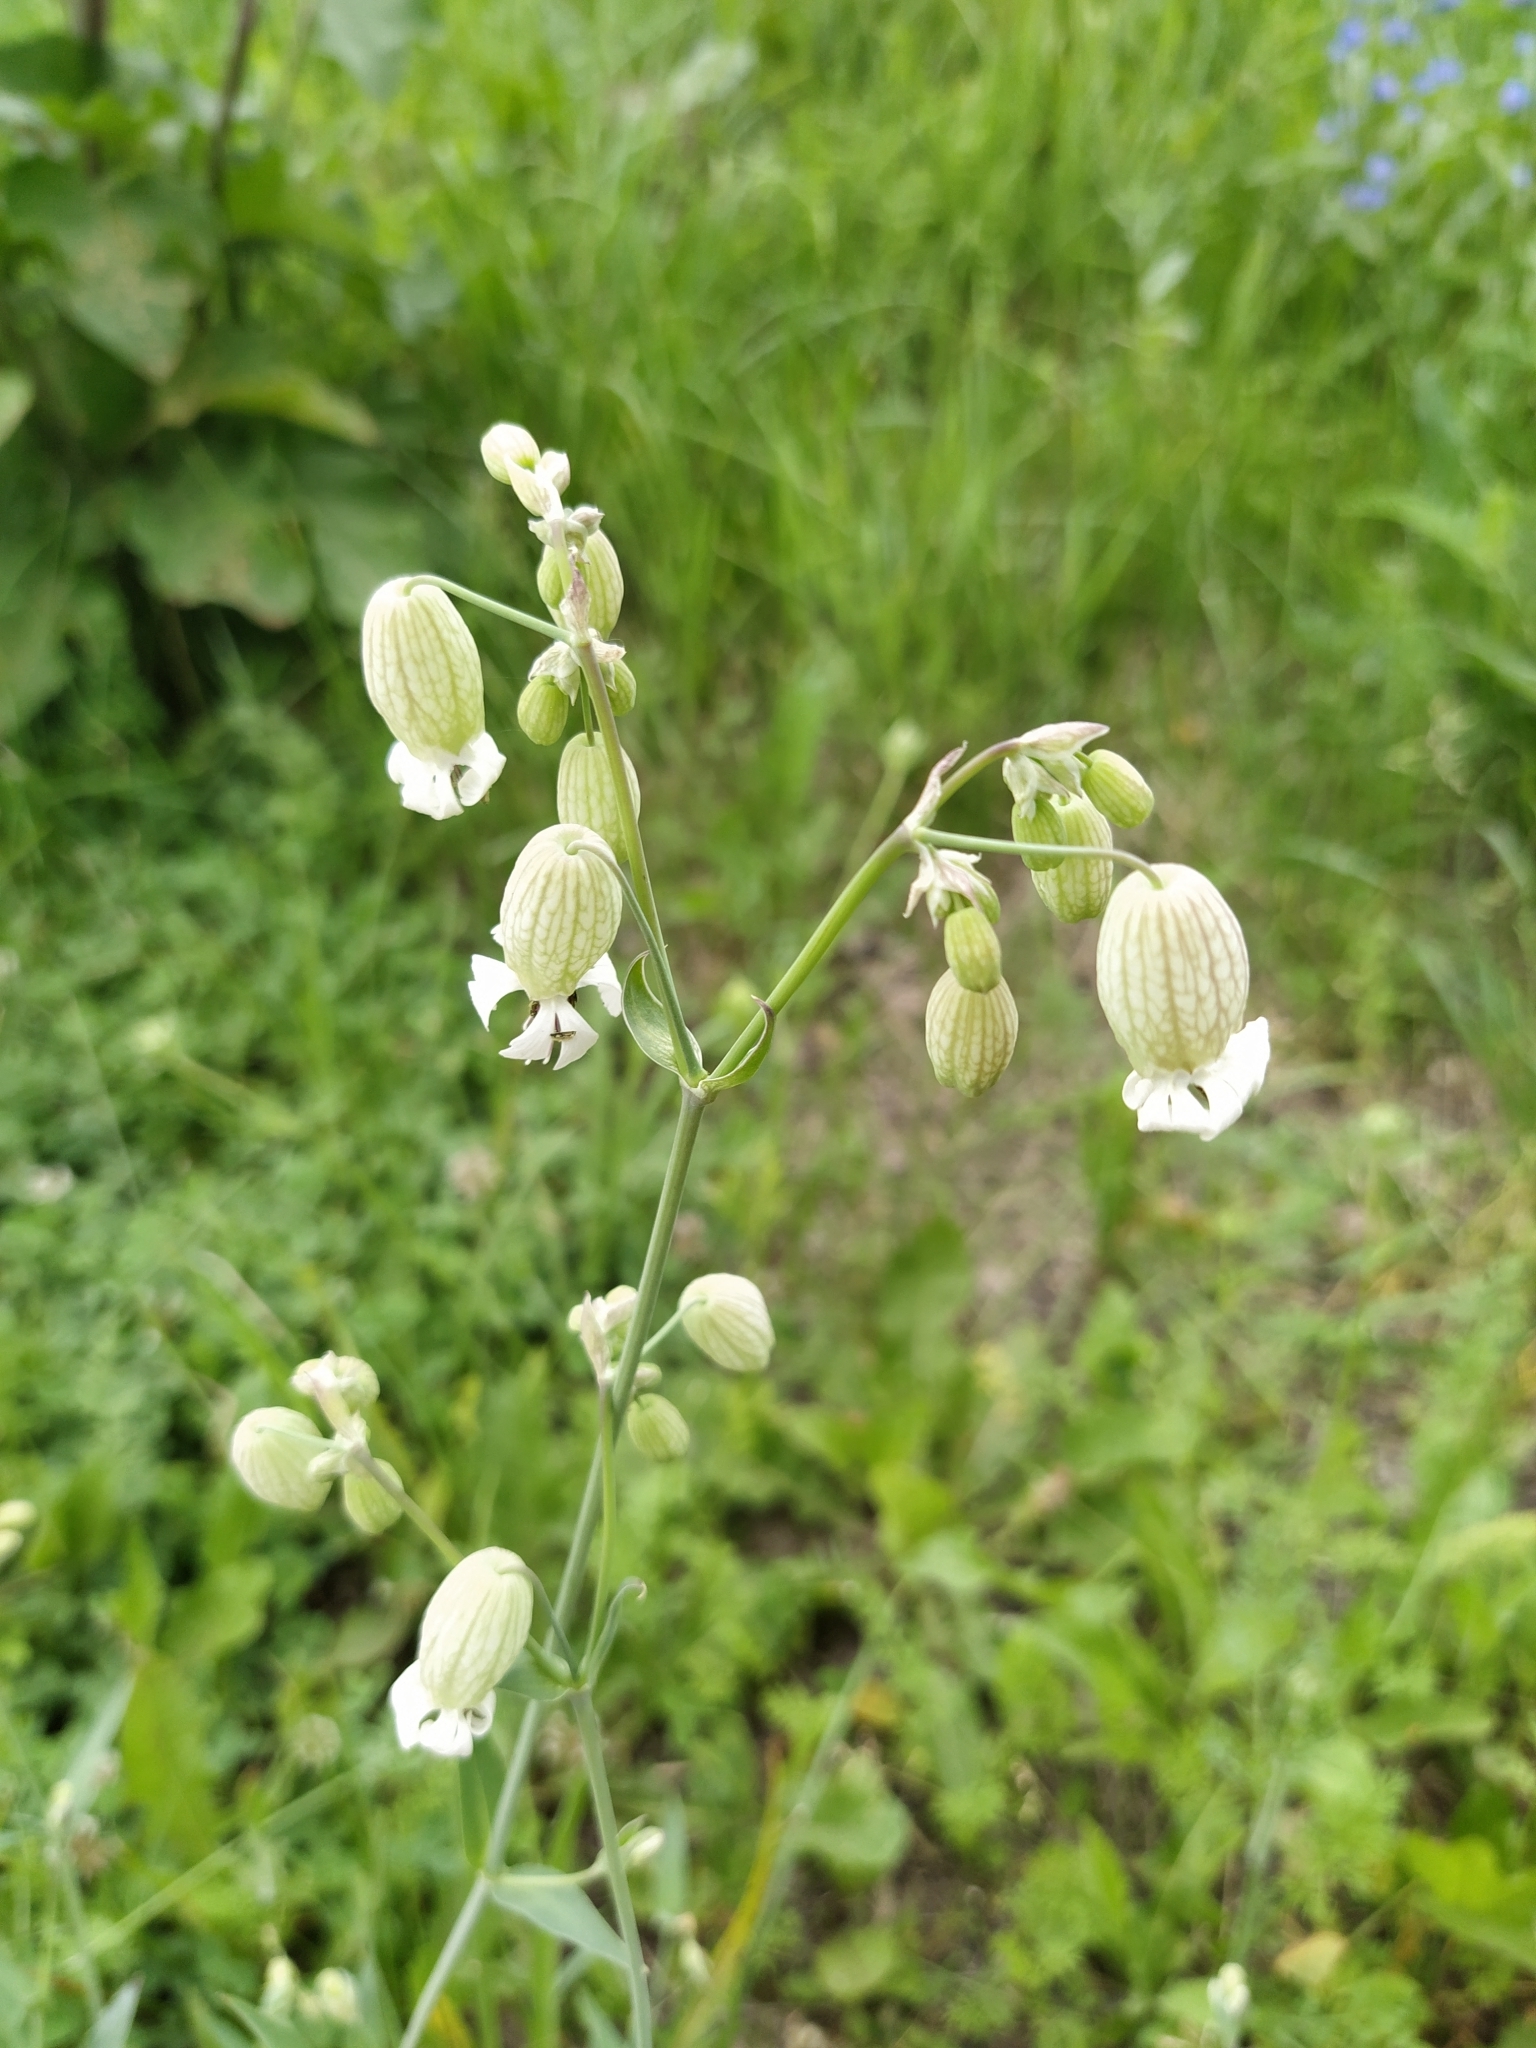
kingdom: Plantae
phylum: Tracheophyta
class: Magnoliopsida
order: Caryophyllales
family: Caryophyllaceae
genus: Silene
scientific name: Silene vulgaris
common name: Bladder campion
